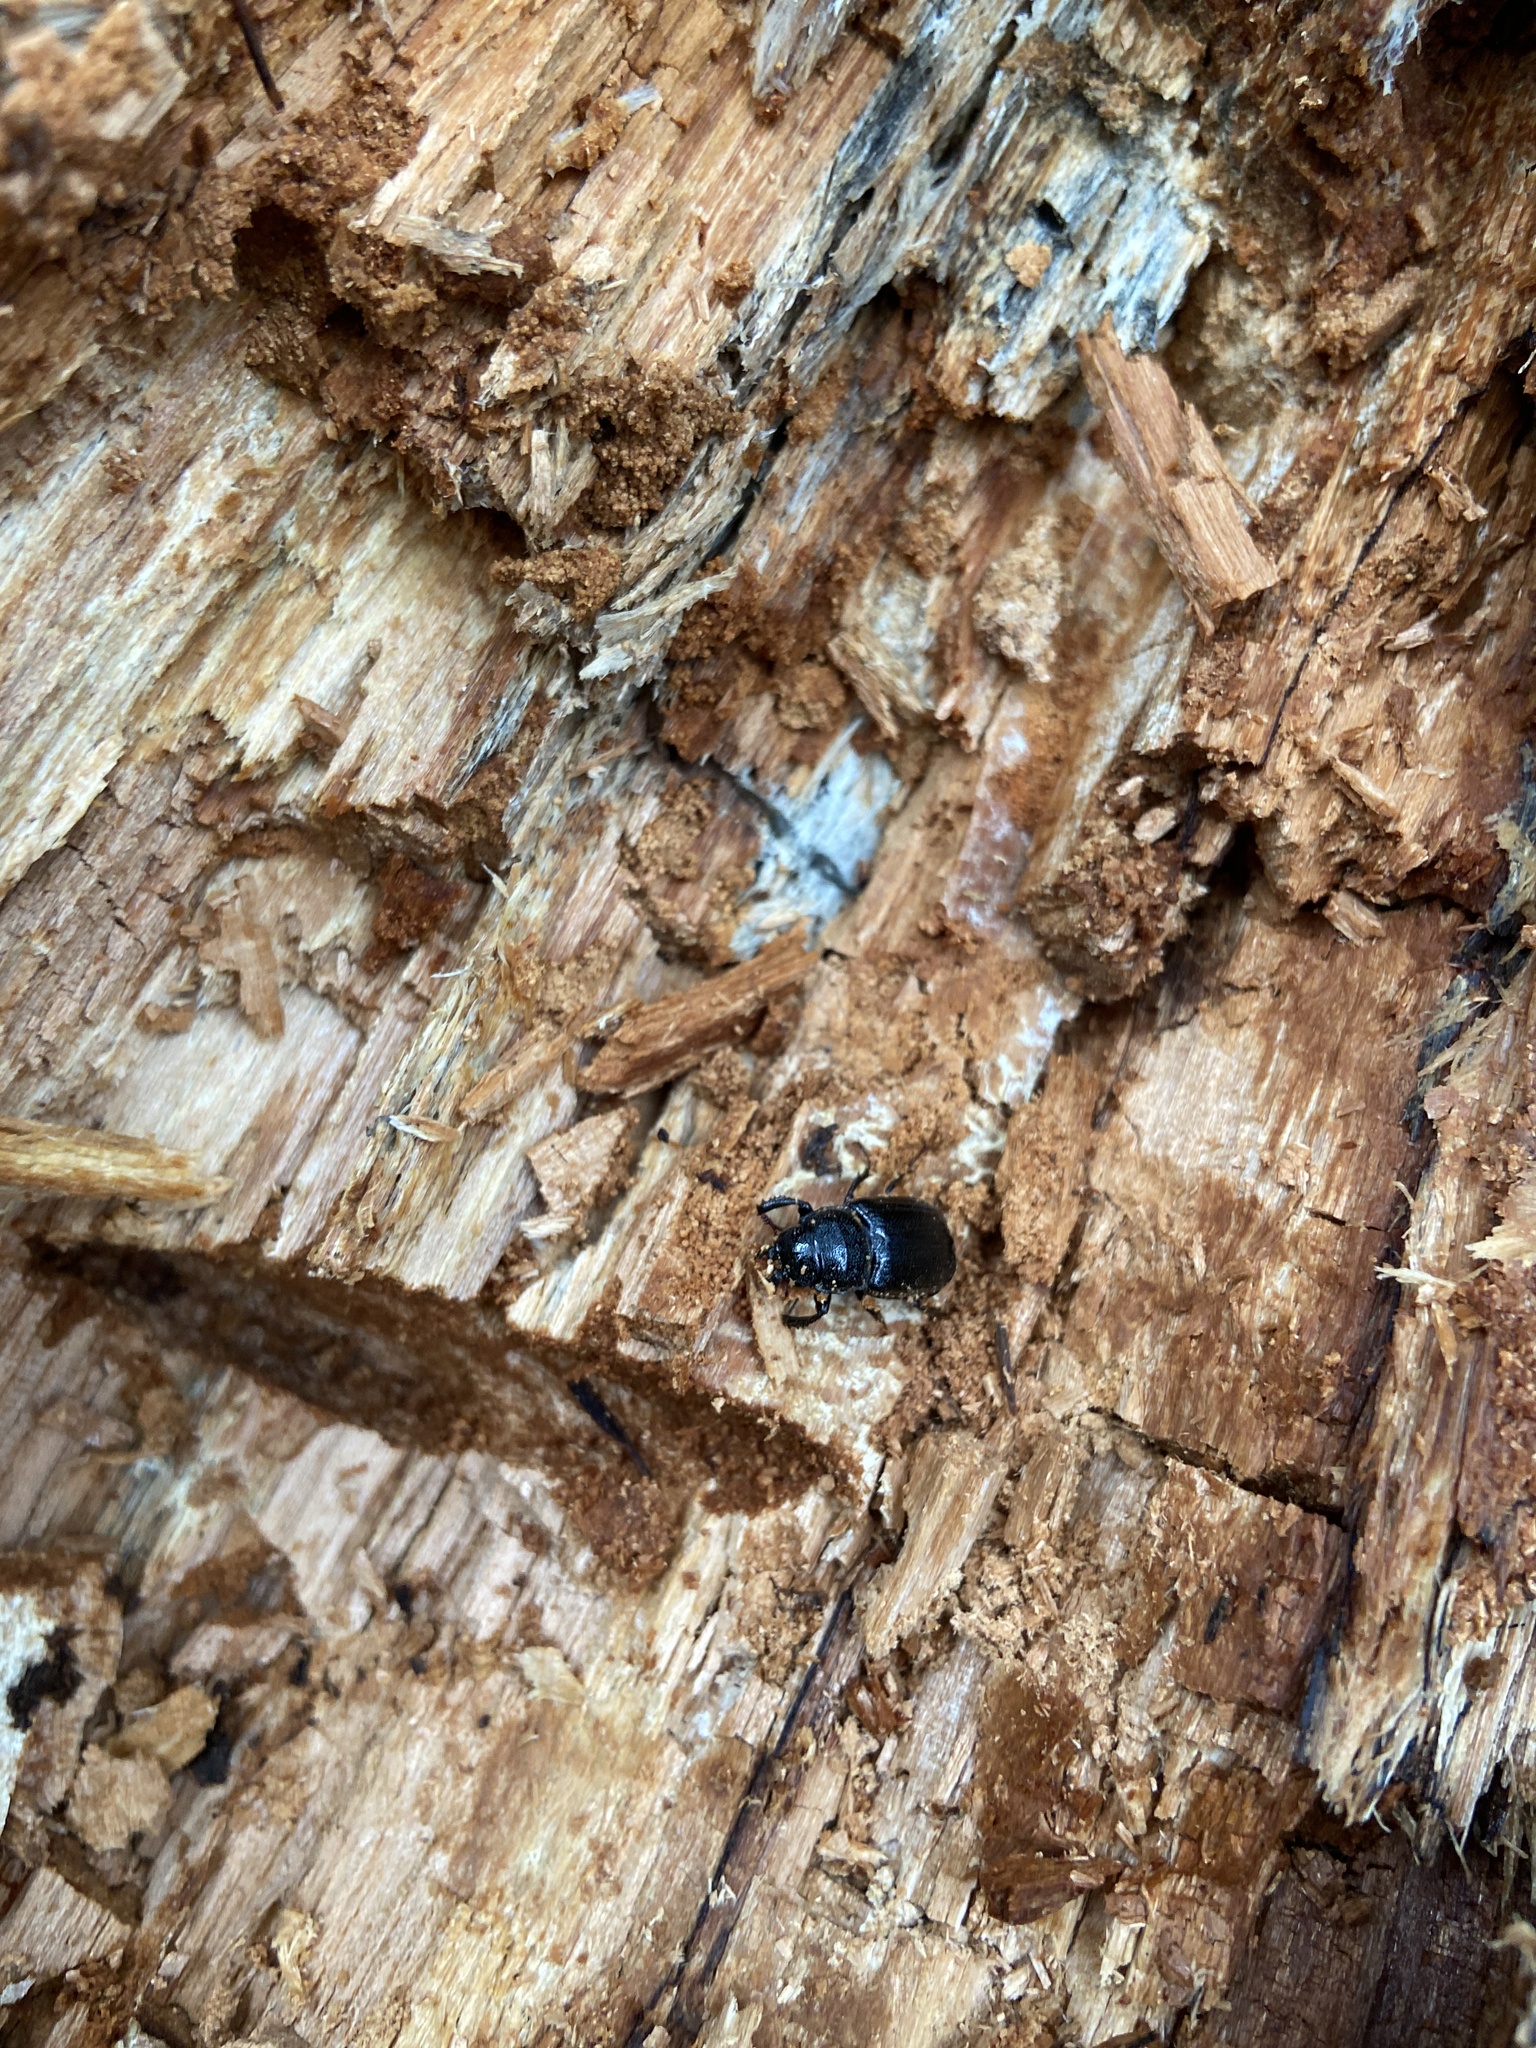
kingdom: Animalia
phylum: Arthropoda
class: Insecta
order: Coleoptera
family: Lucanidae
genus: Ceruchus
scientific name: Ceruchus chrysomelinus
